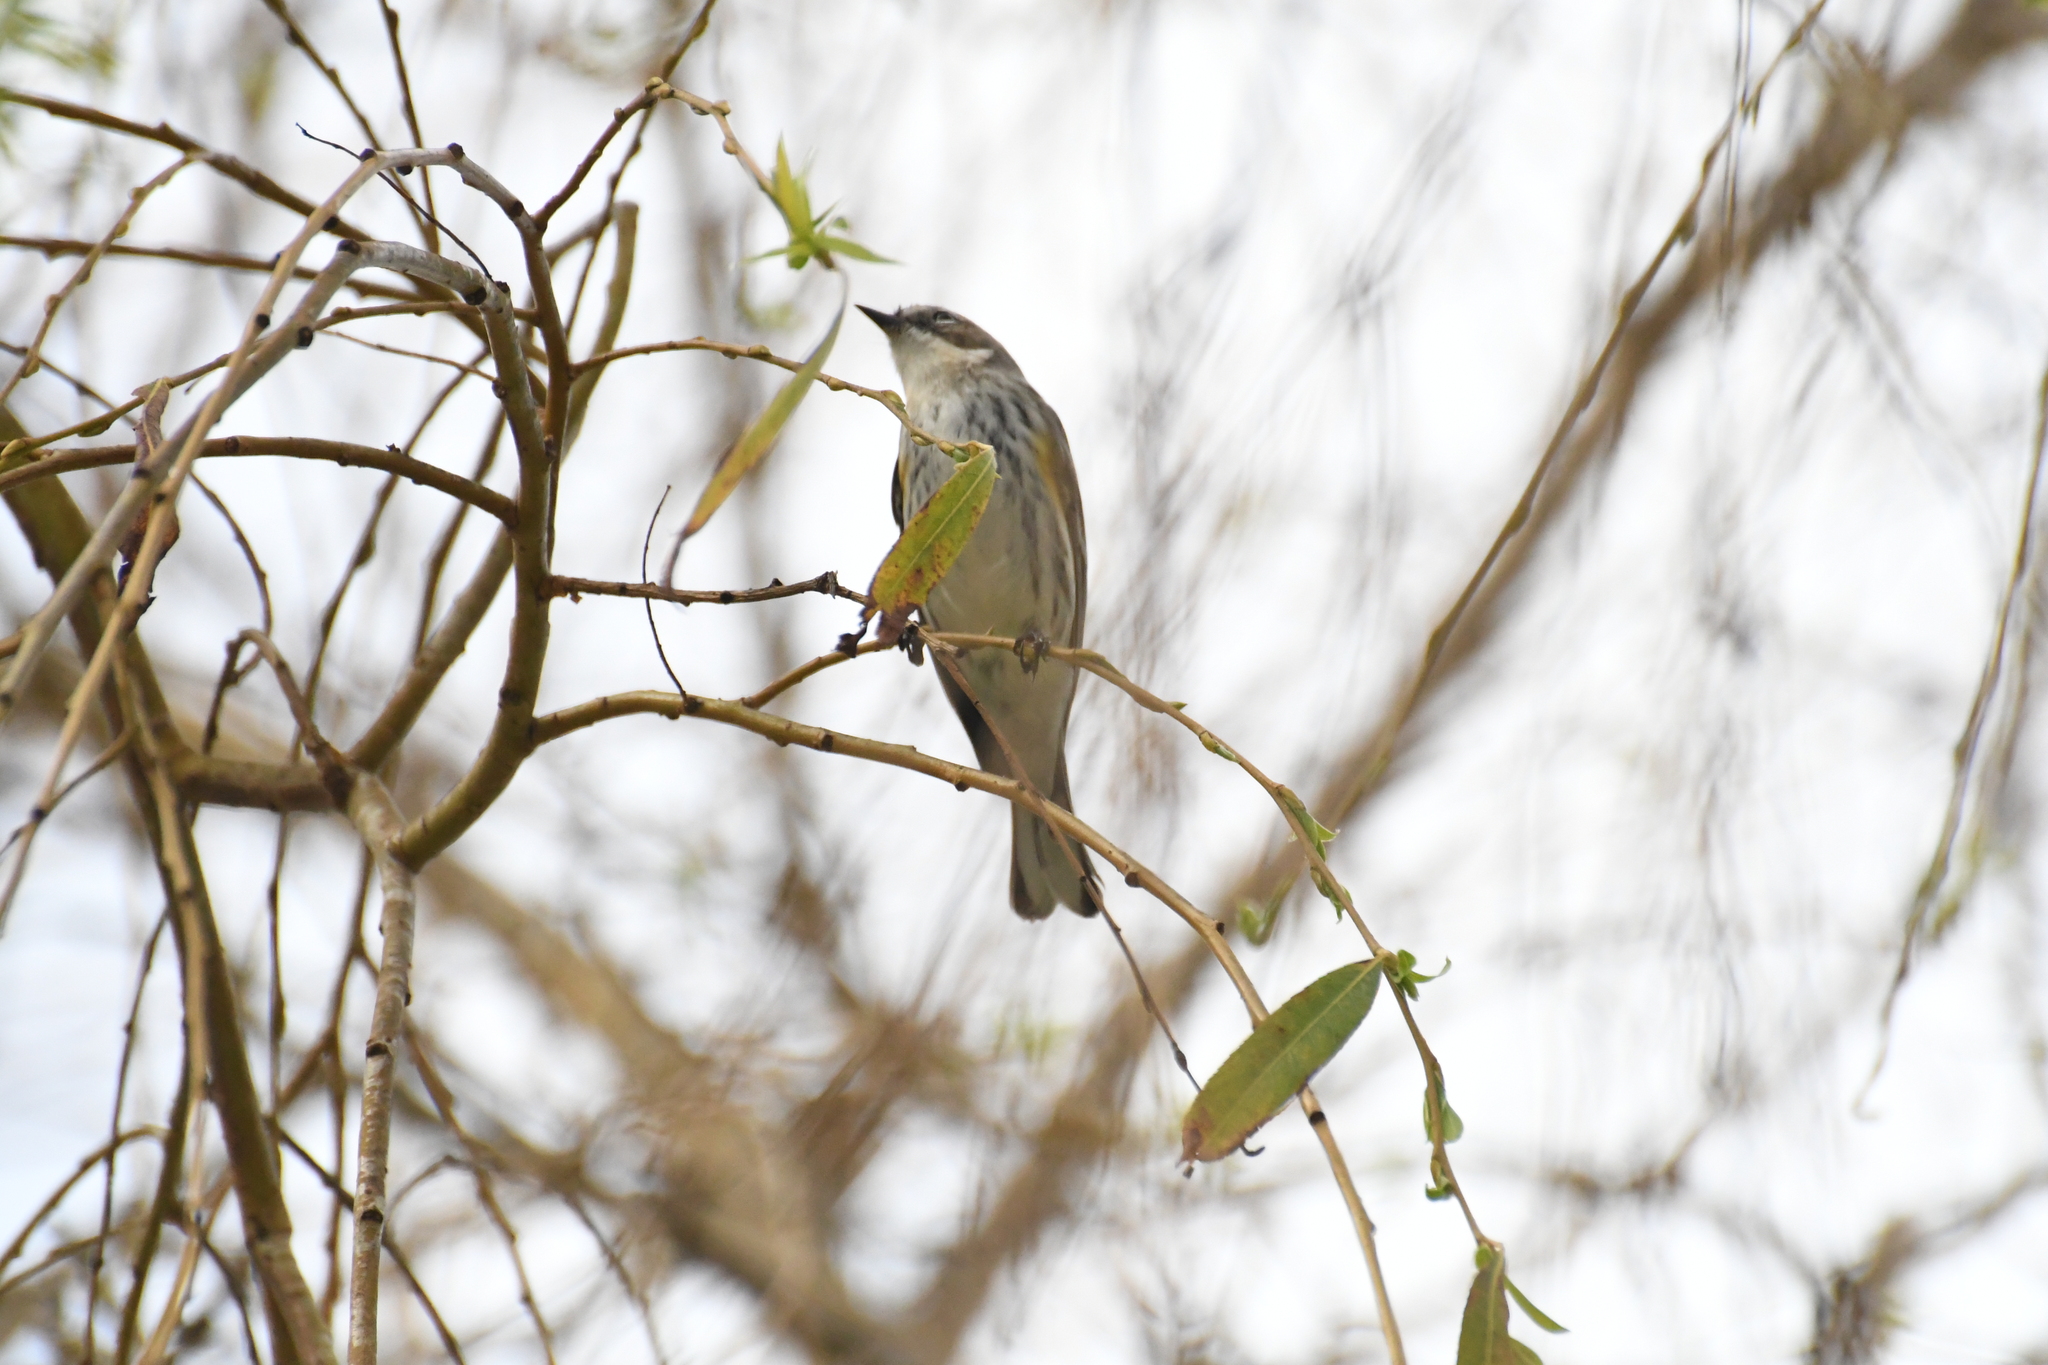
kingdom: Animalia
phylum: Chordata
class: Aves
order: Passeriformes
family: Parulidae
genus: Setophaga
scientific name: Setophaga coronata
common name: Myrtle warbler
